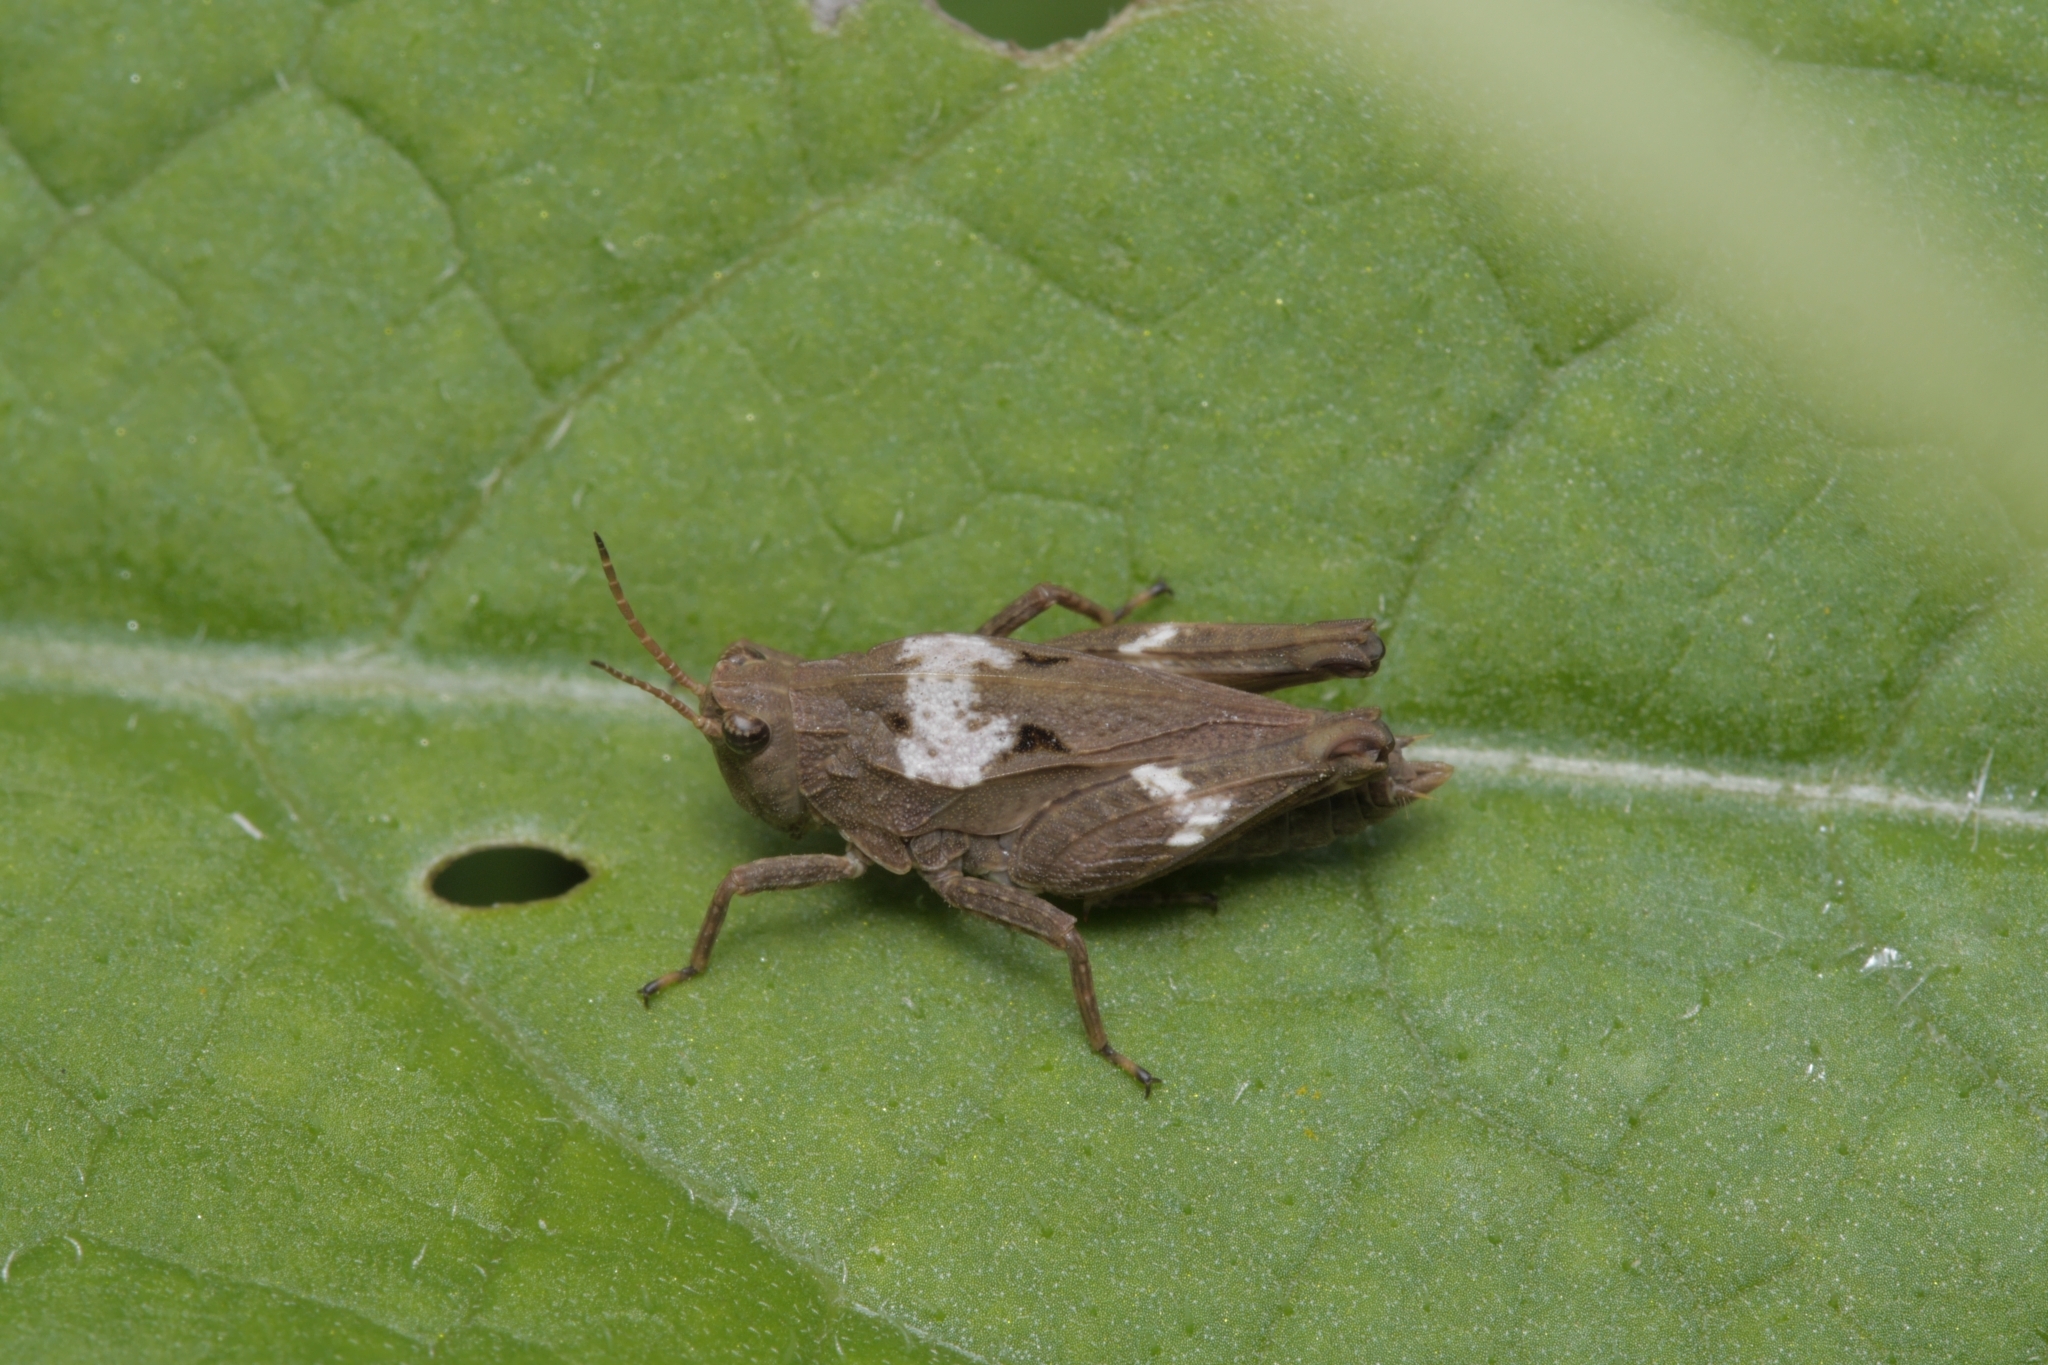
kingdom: Animalia
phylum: Arthropoda
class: Insecta
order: Orthoptera
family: Tetrigidae
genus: Tetrix
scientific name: Tetrix subulata
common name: Slender ground-hopper
